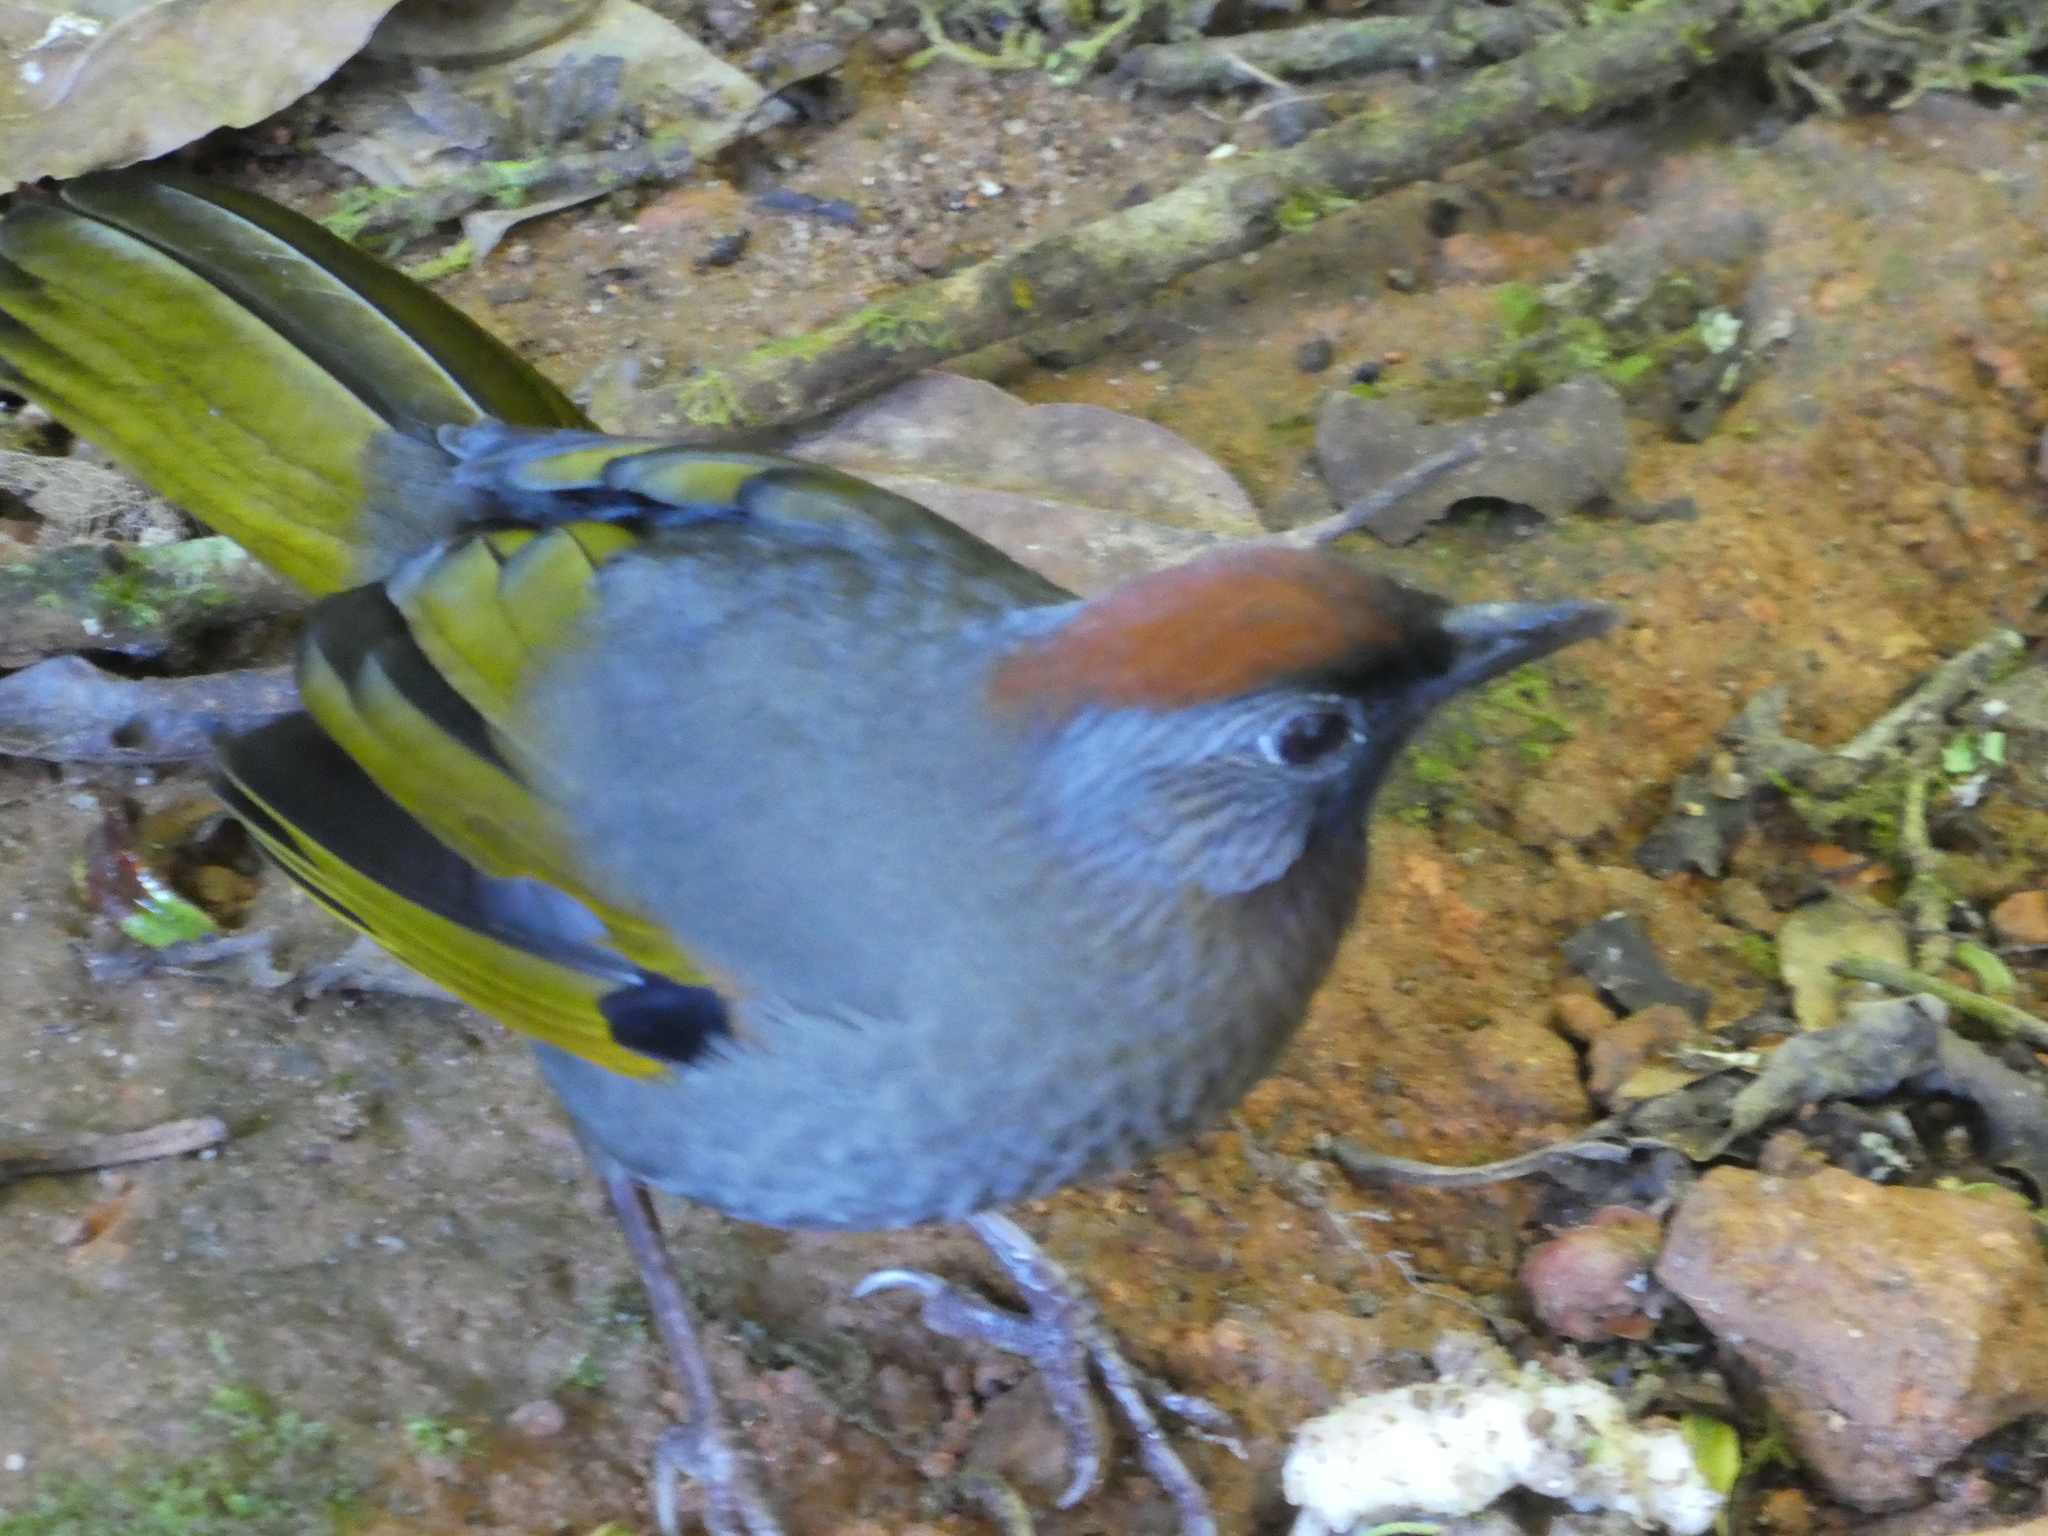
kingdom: Animalia
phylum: Chordata
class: Aves
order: Passeriformes
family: Leiothrichidae
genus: Trochalopteron
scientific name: Trochalopteron melanostigma
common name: Silver-eared laughingthrush
